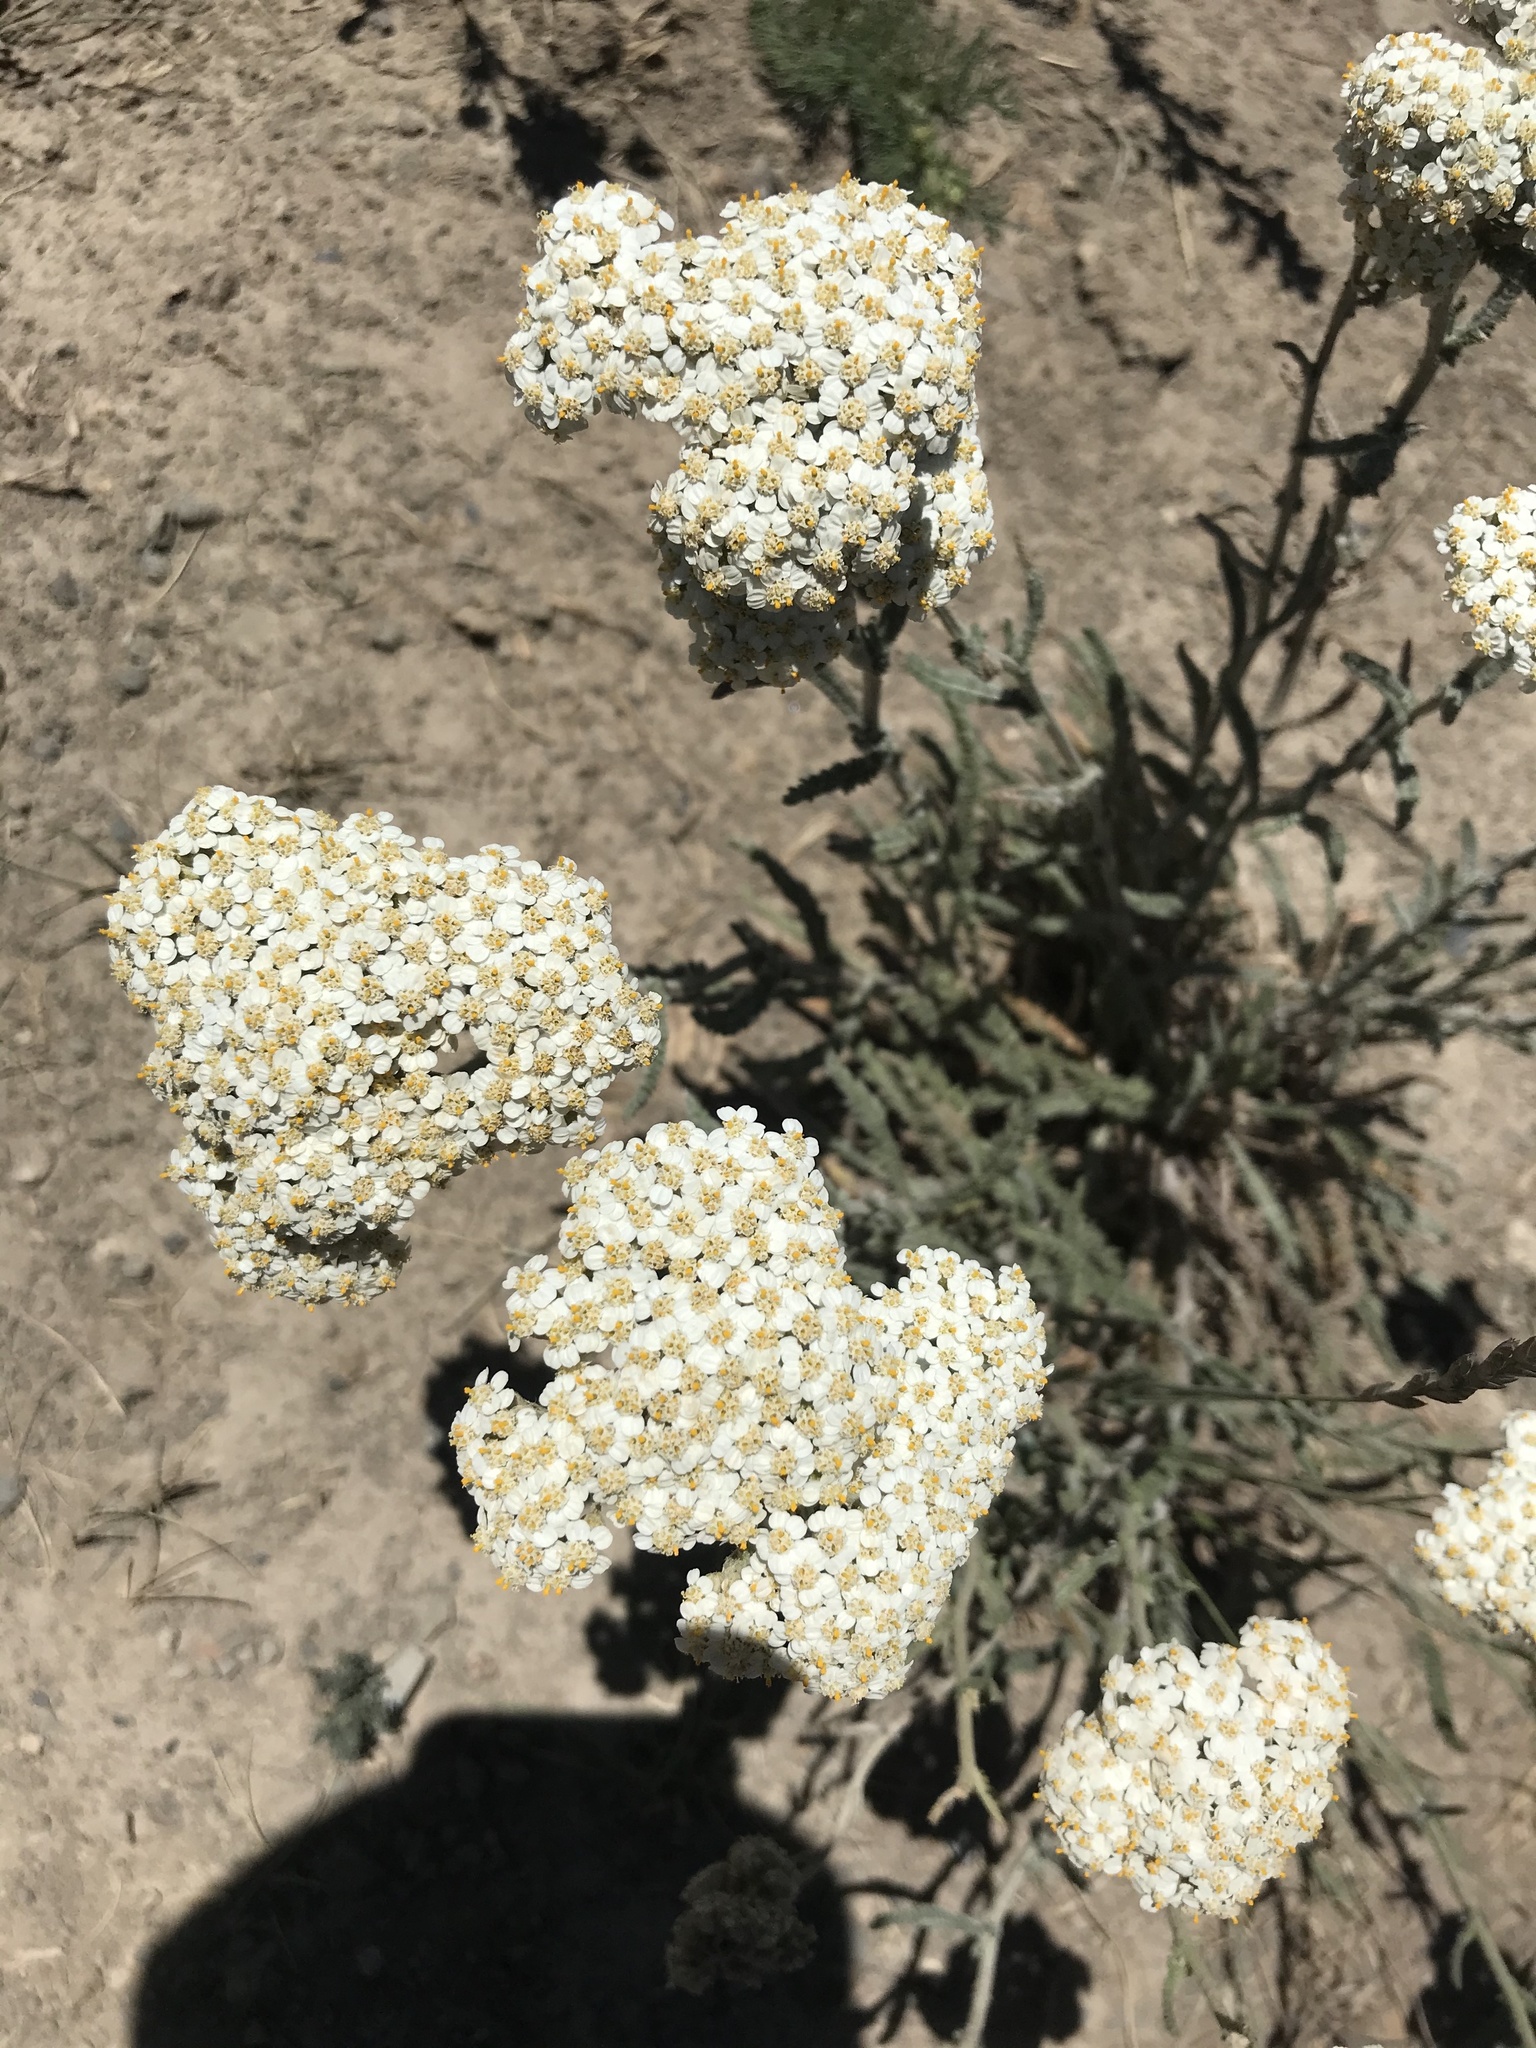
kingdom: Plantae
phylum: Tracheophyta
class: Magnoliopsida
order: Asterales
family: Asteraceae
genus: Achillea
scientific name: Achillea millefolium
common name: Yarrow
